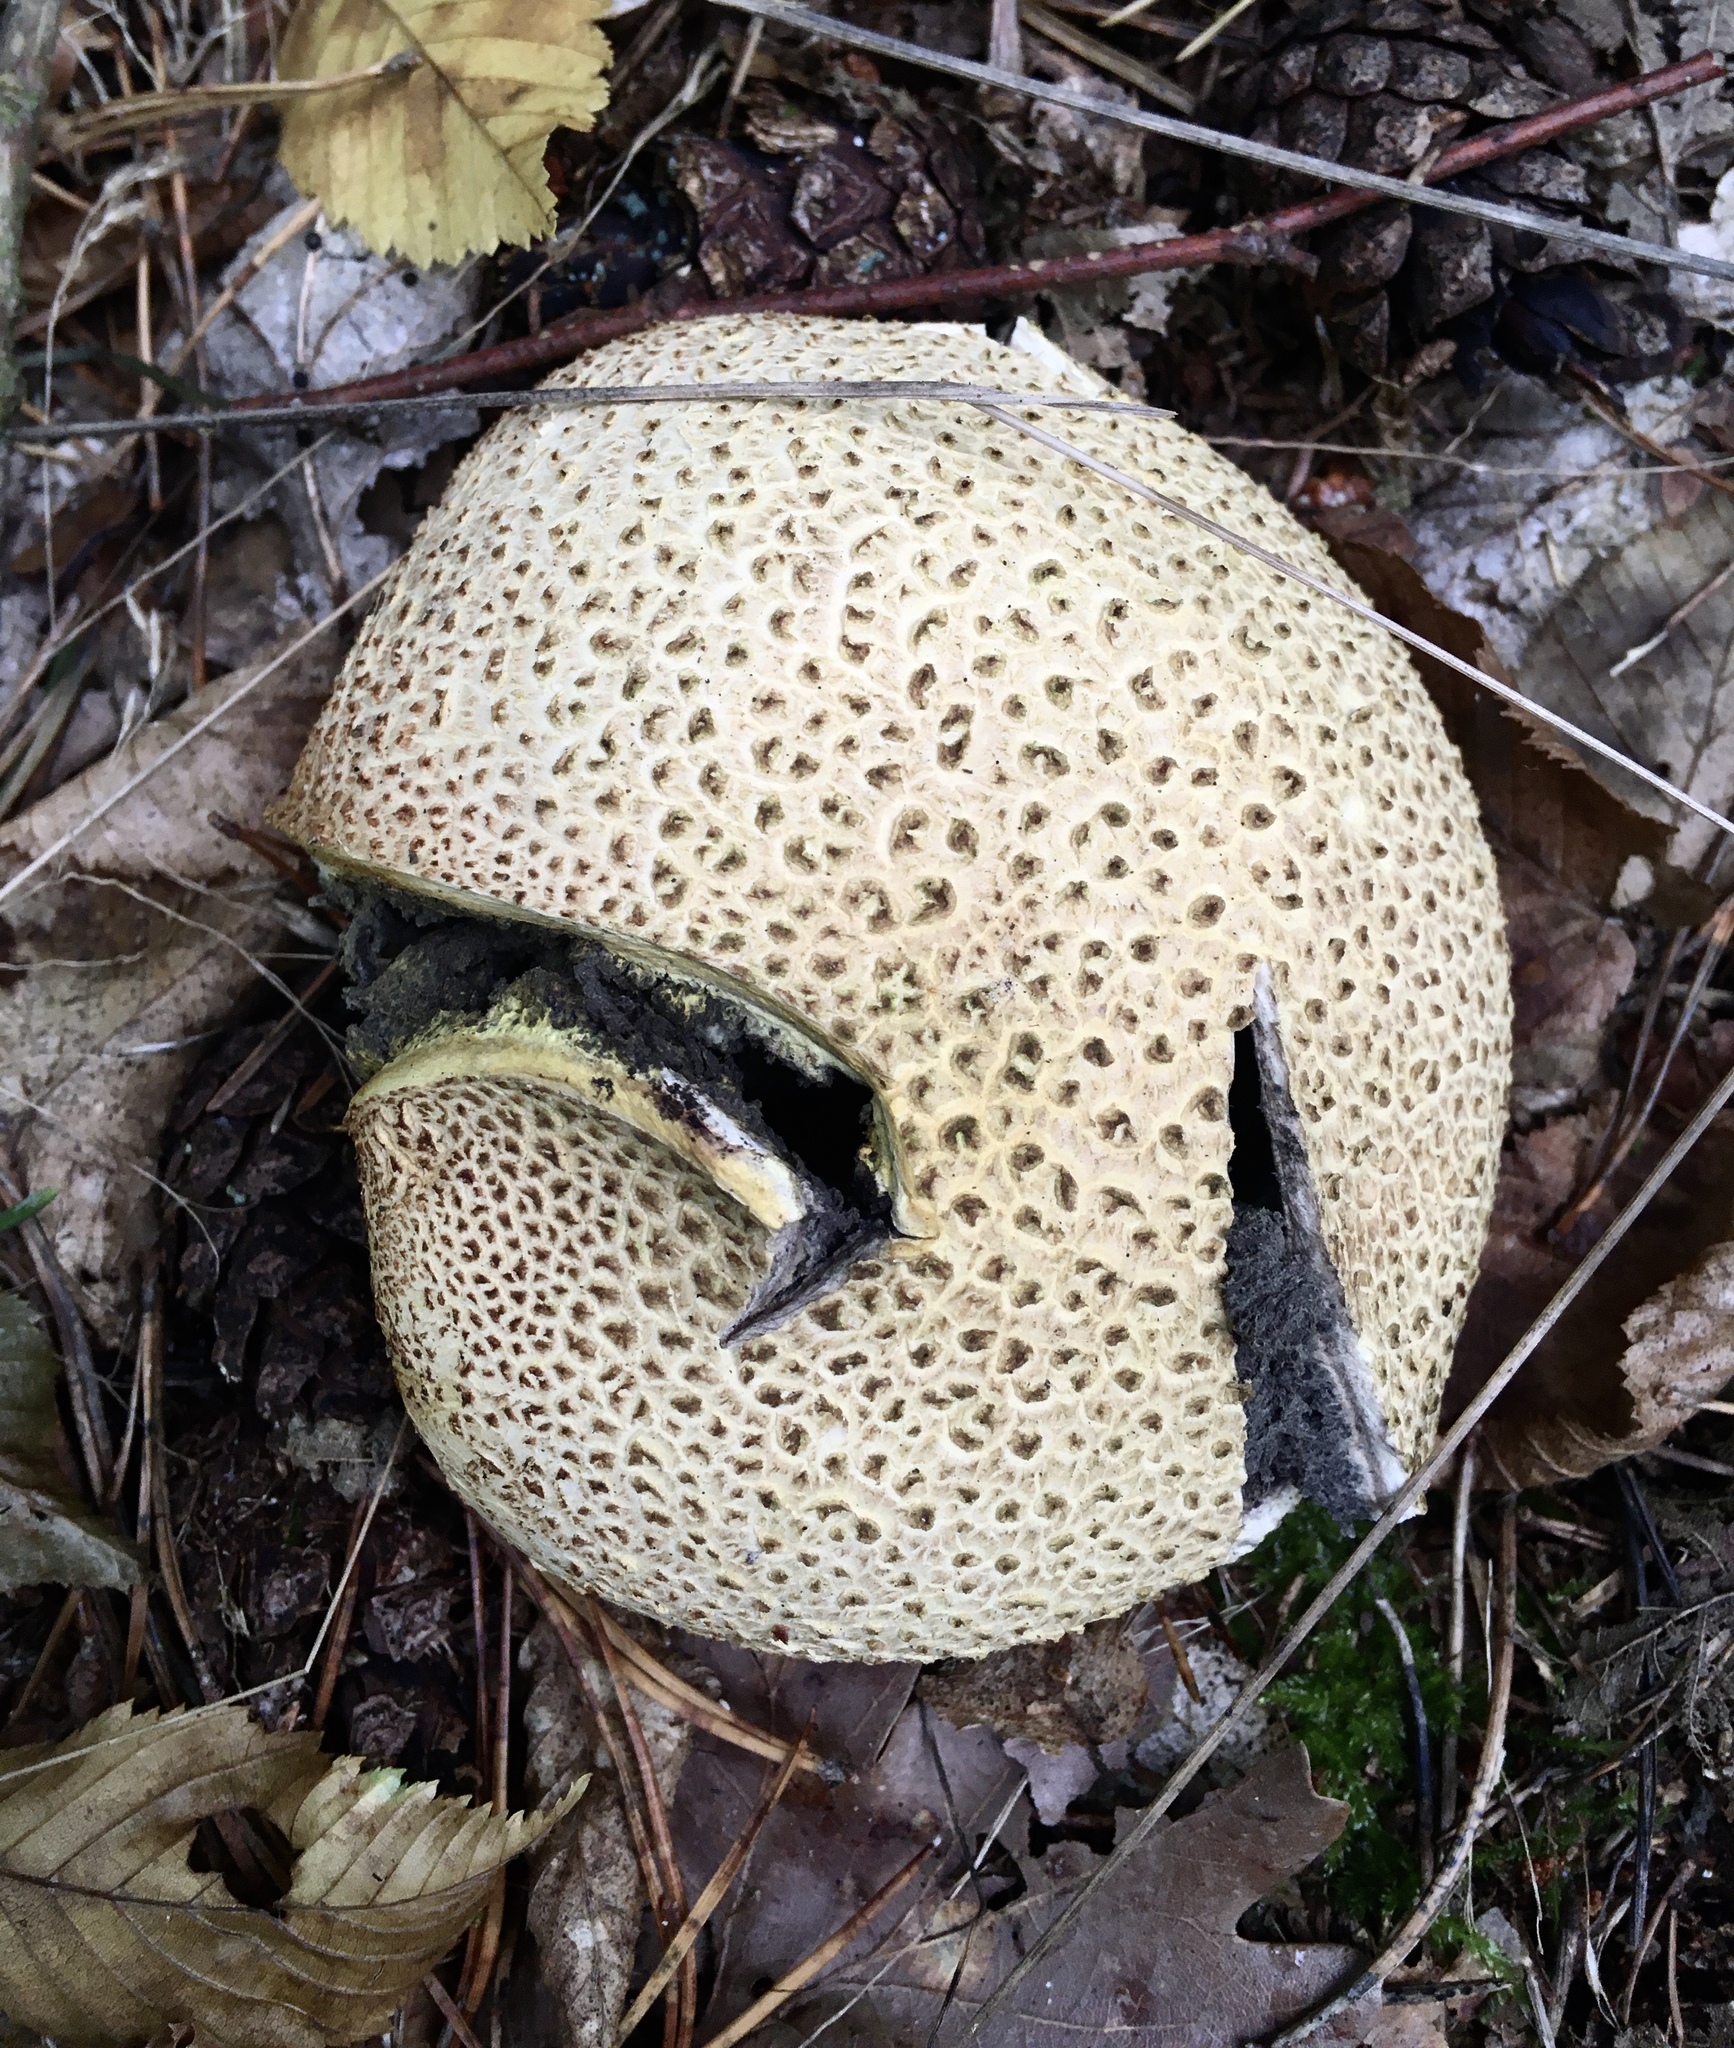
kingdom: Fungi
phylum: Basidiomycota
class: Agaricomycetes
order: Boletales
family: Sclerodermataceae
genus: Scleroderma
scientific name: Scleroderma citrinum
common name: Common earthball
